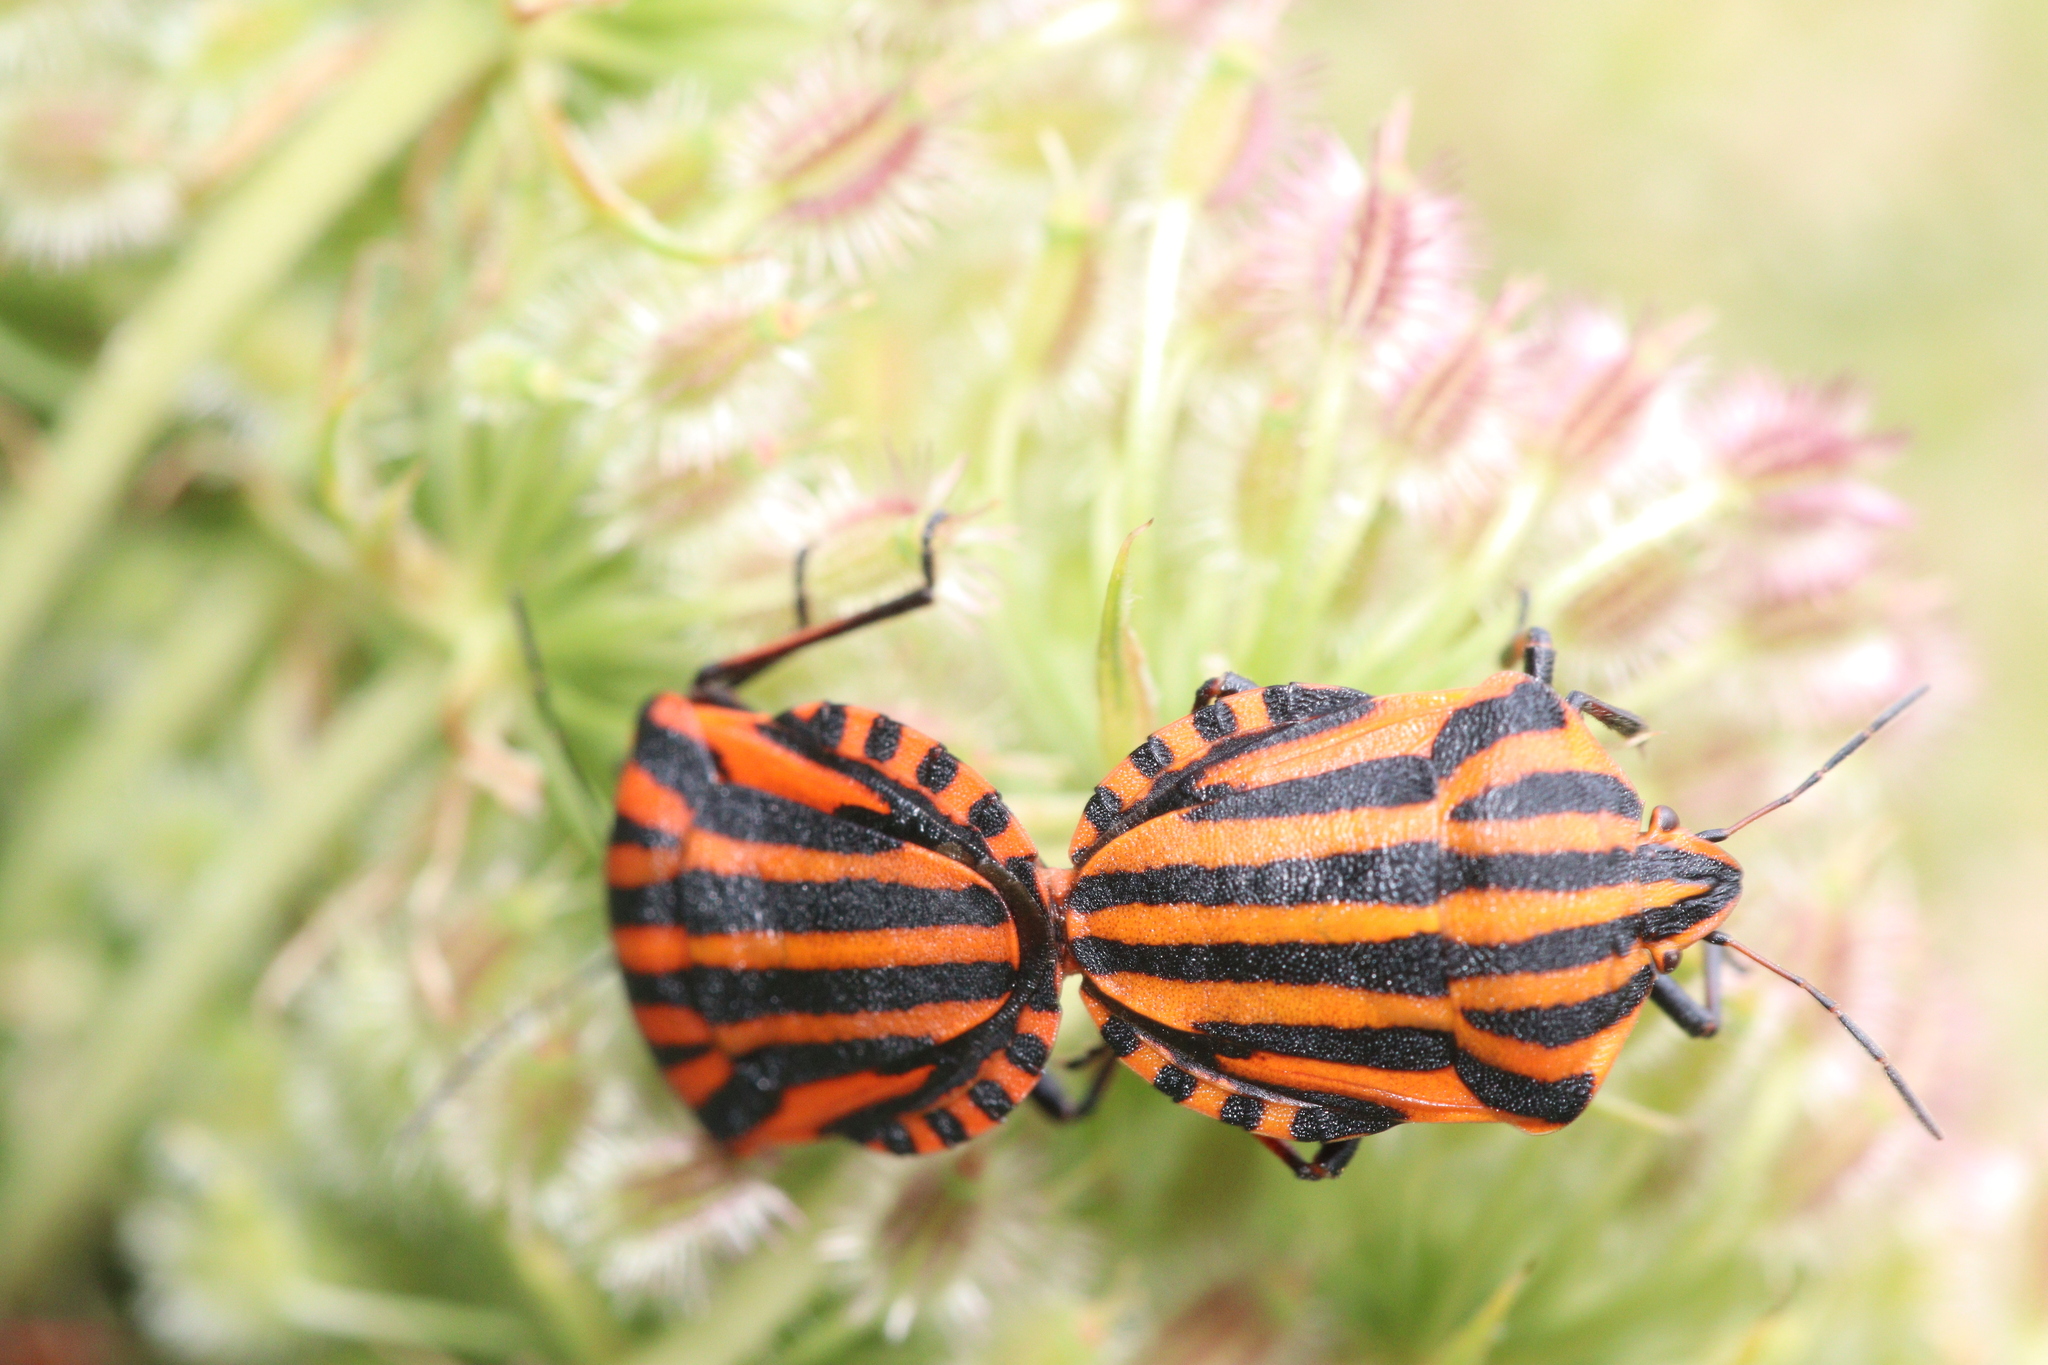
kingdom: Animalia
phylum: Arthropoda
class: Insecta
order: Hemiptera
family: Pentatomidae
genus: Graphosoma
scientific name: Graphosoma italicum
